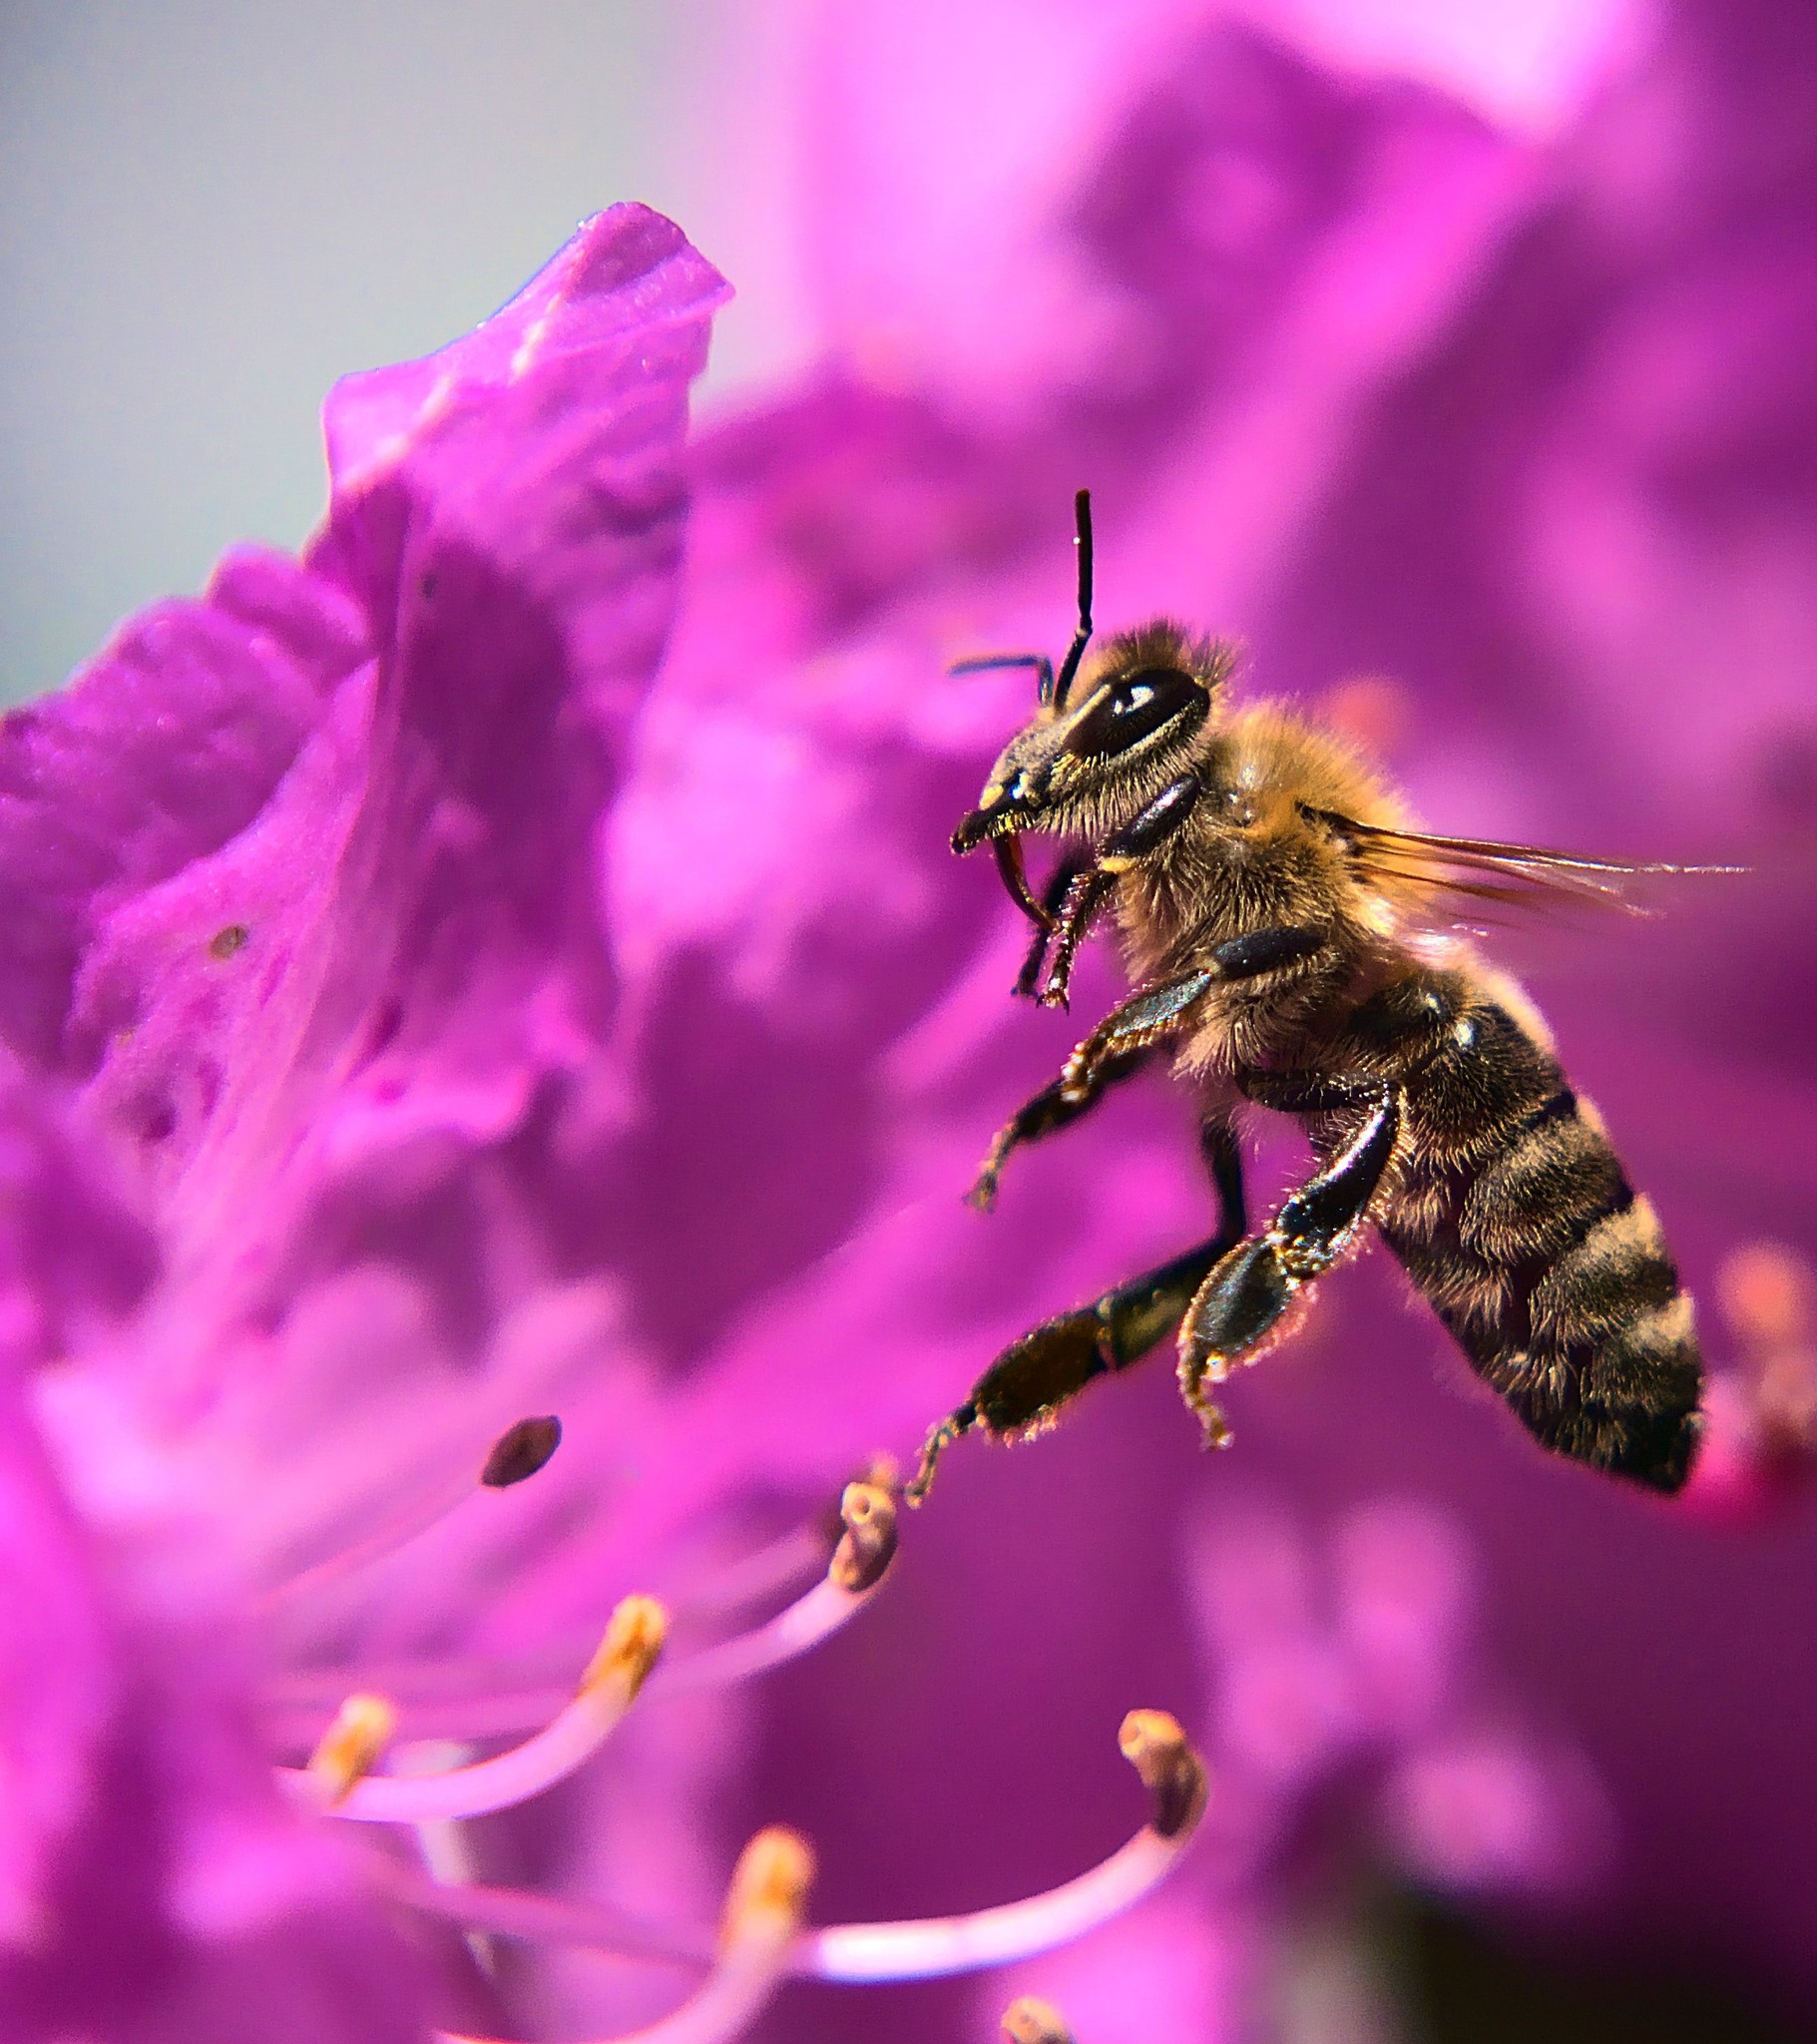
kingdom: Animalia
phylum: Arthropoda
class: Insecta
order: Hymenoptera
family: Apidae
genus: Apis
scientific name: Apis mellifera
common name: Honey bee
